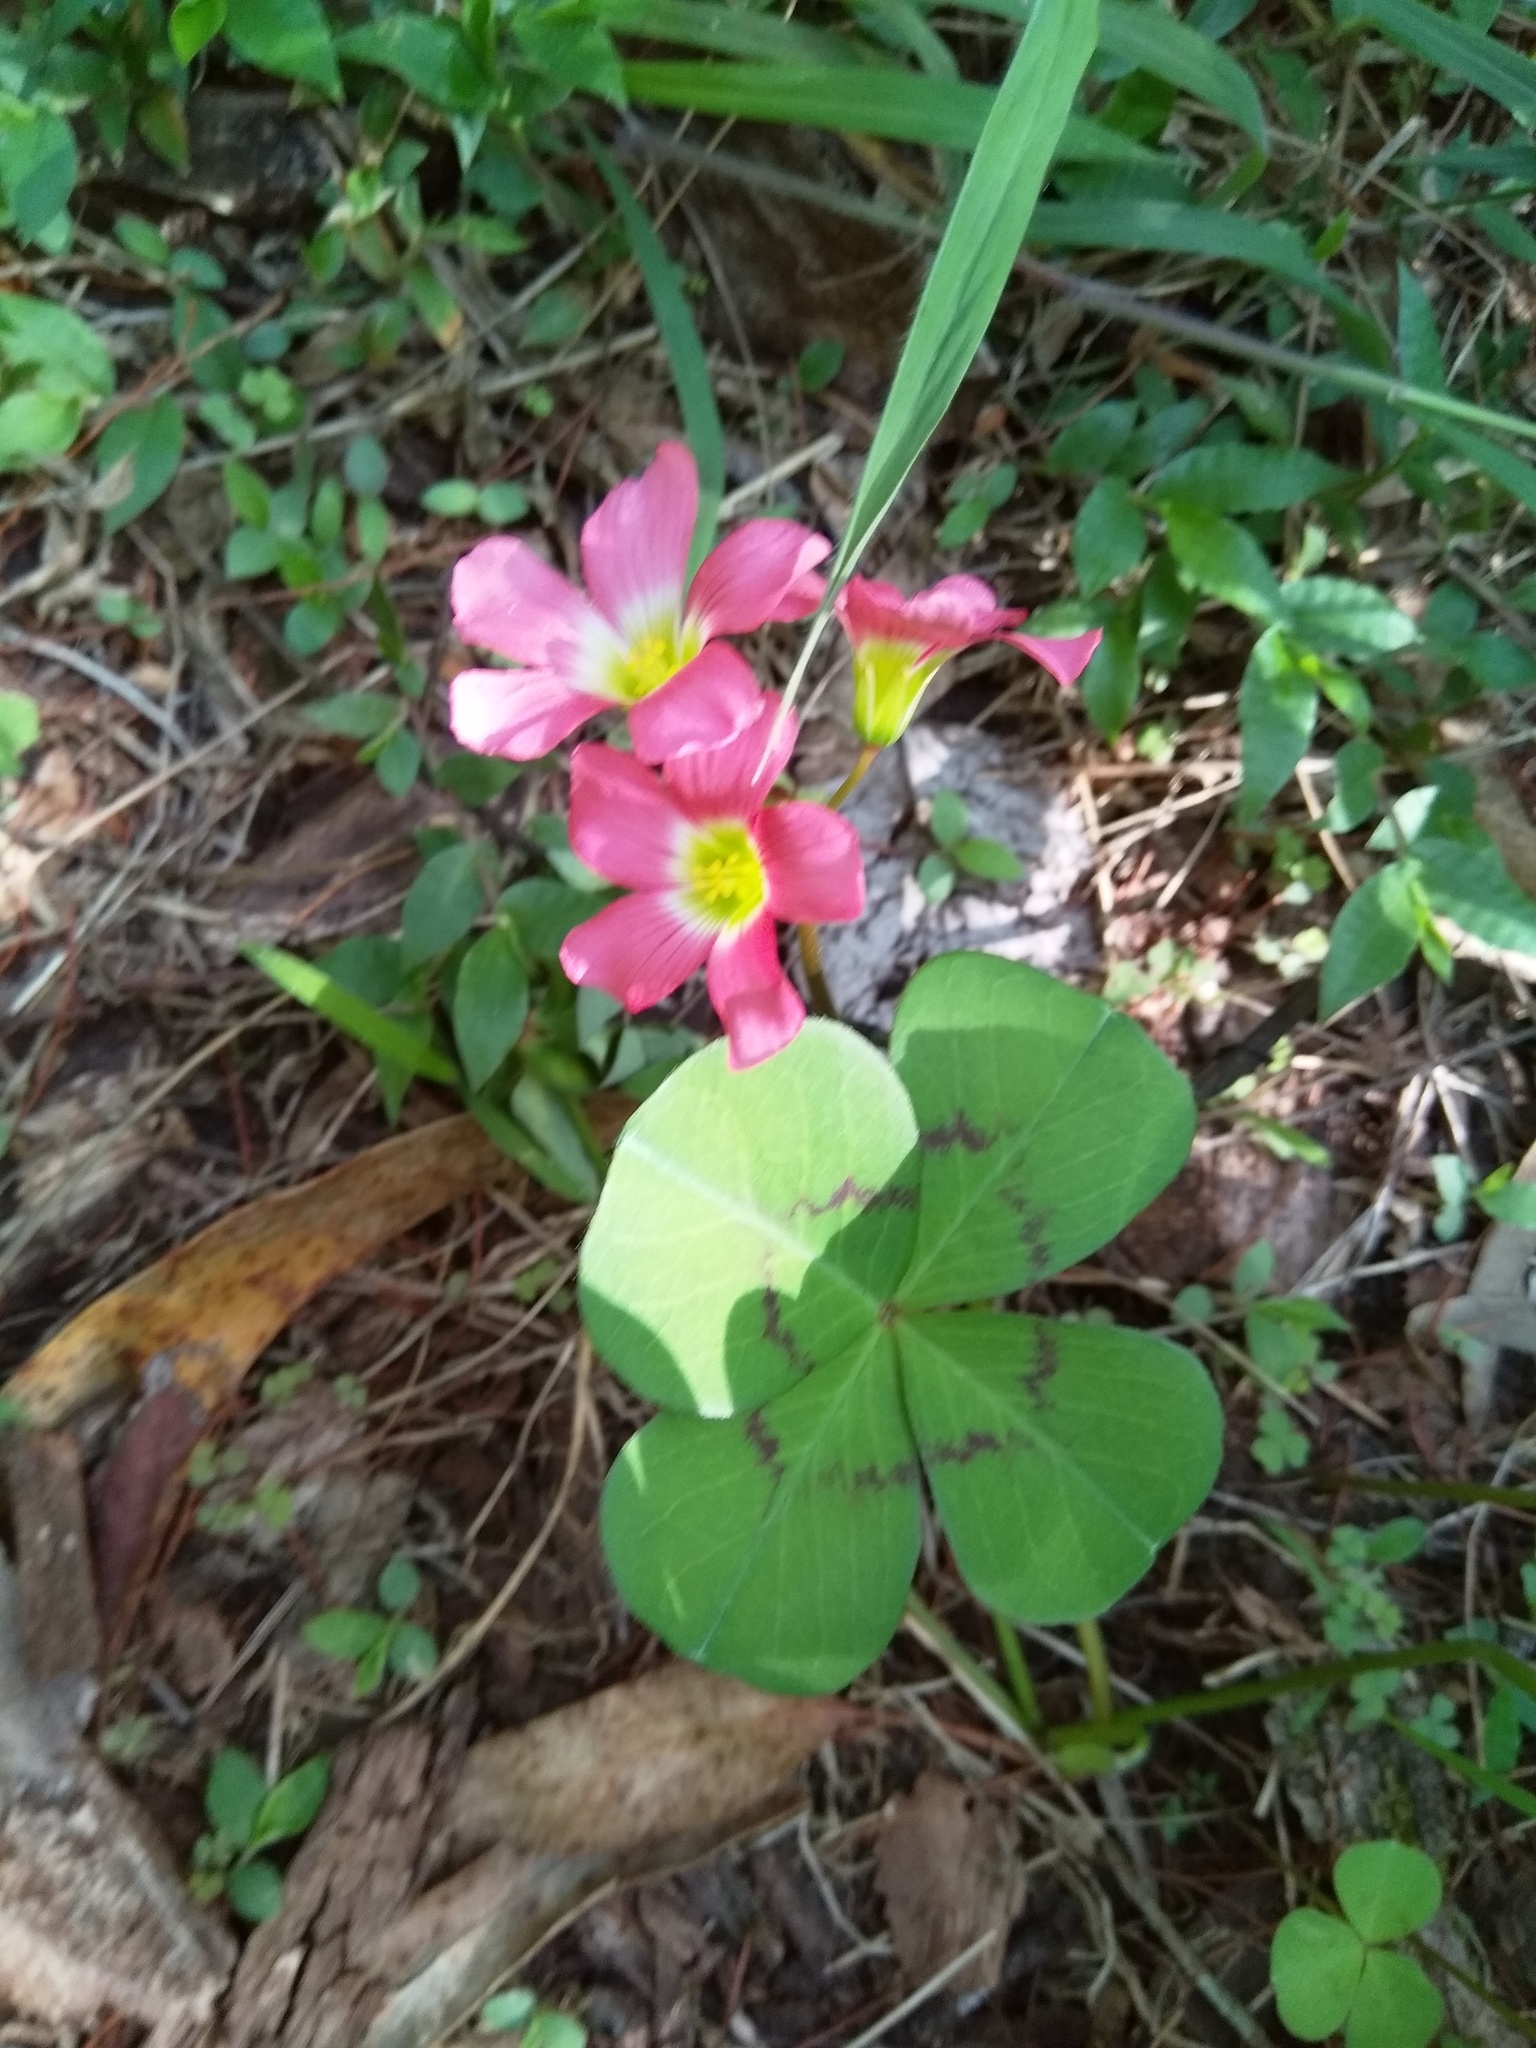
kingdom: Plantae
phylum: Tracheophyta
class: Magnoliopsida
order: Oxalidales
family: Oxalidaceae
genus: Oxalis
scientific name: Oxalis tetraphylla
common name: Four-leaved pink-sorrel
